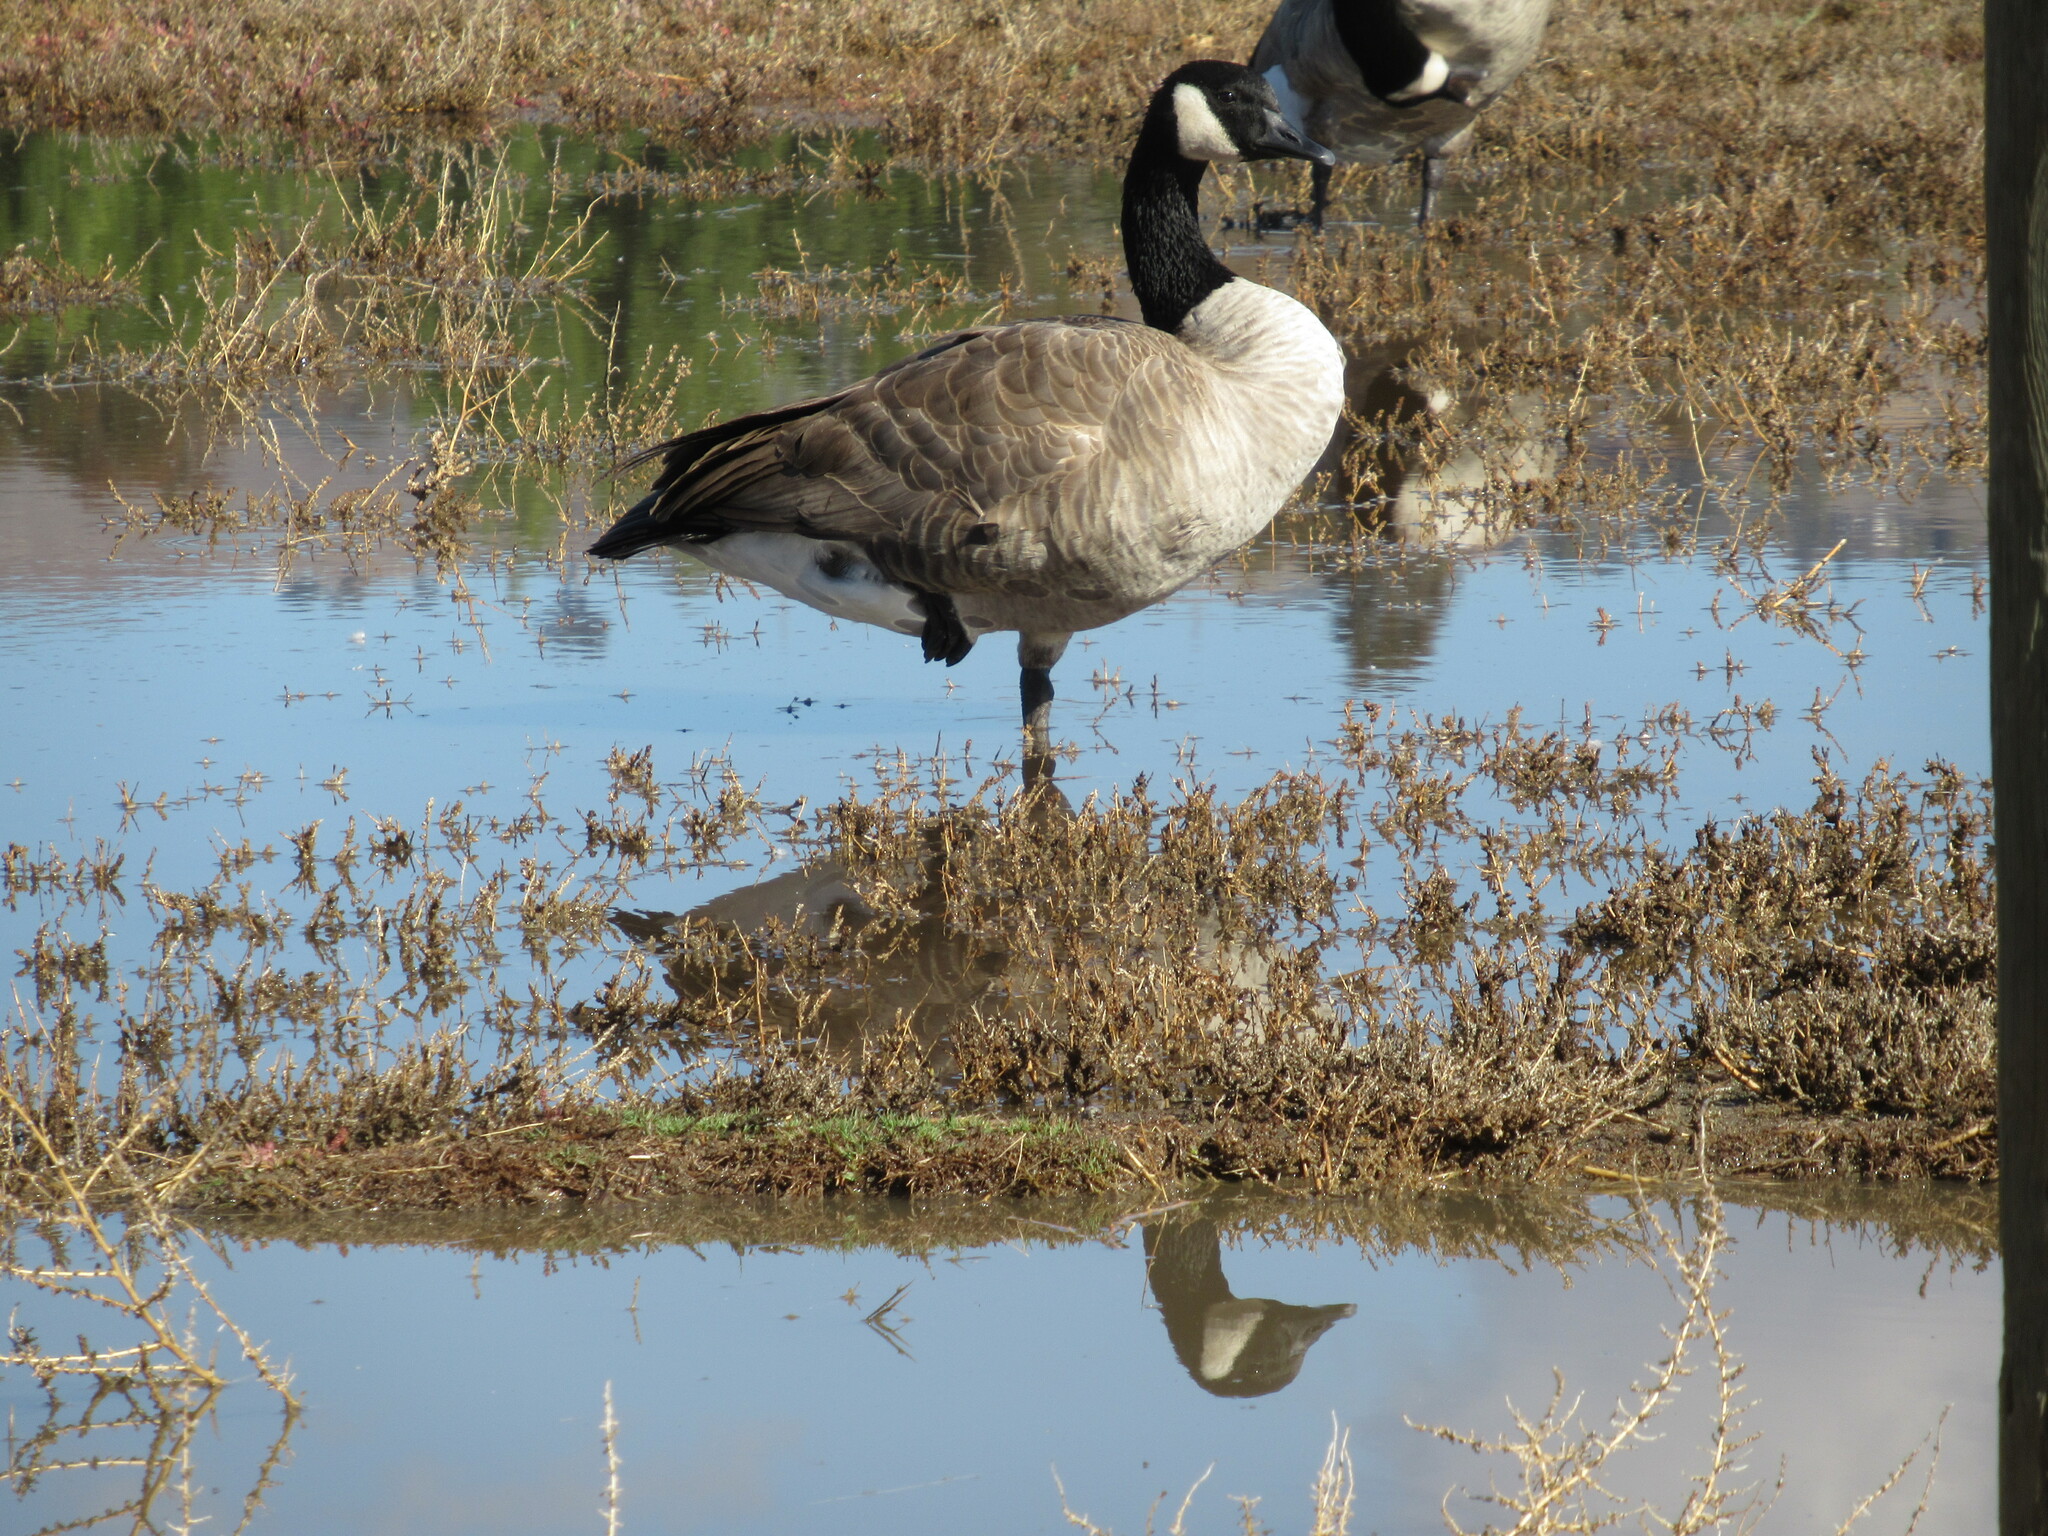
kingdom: Animalia
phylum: Chordata
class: Aves
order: Anseriformes
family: Anatidae
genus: Branta
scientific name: Branta canadensis
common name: Canada goose
